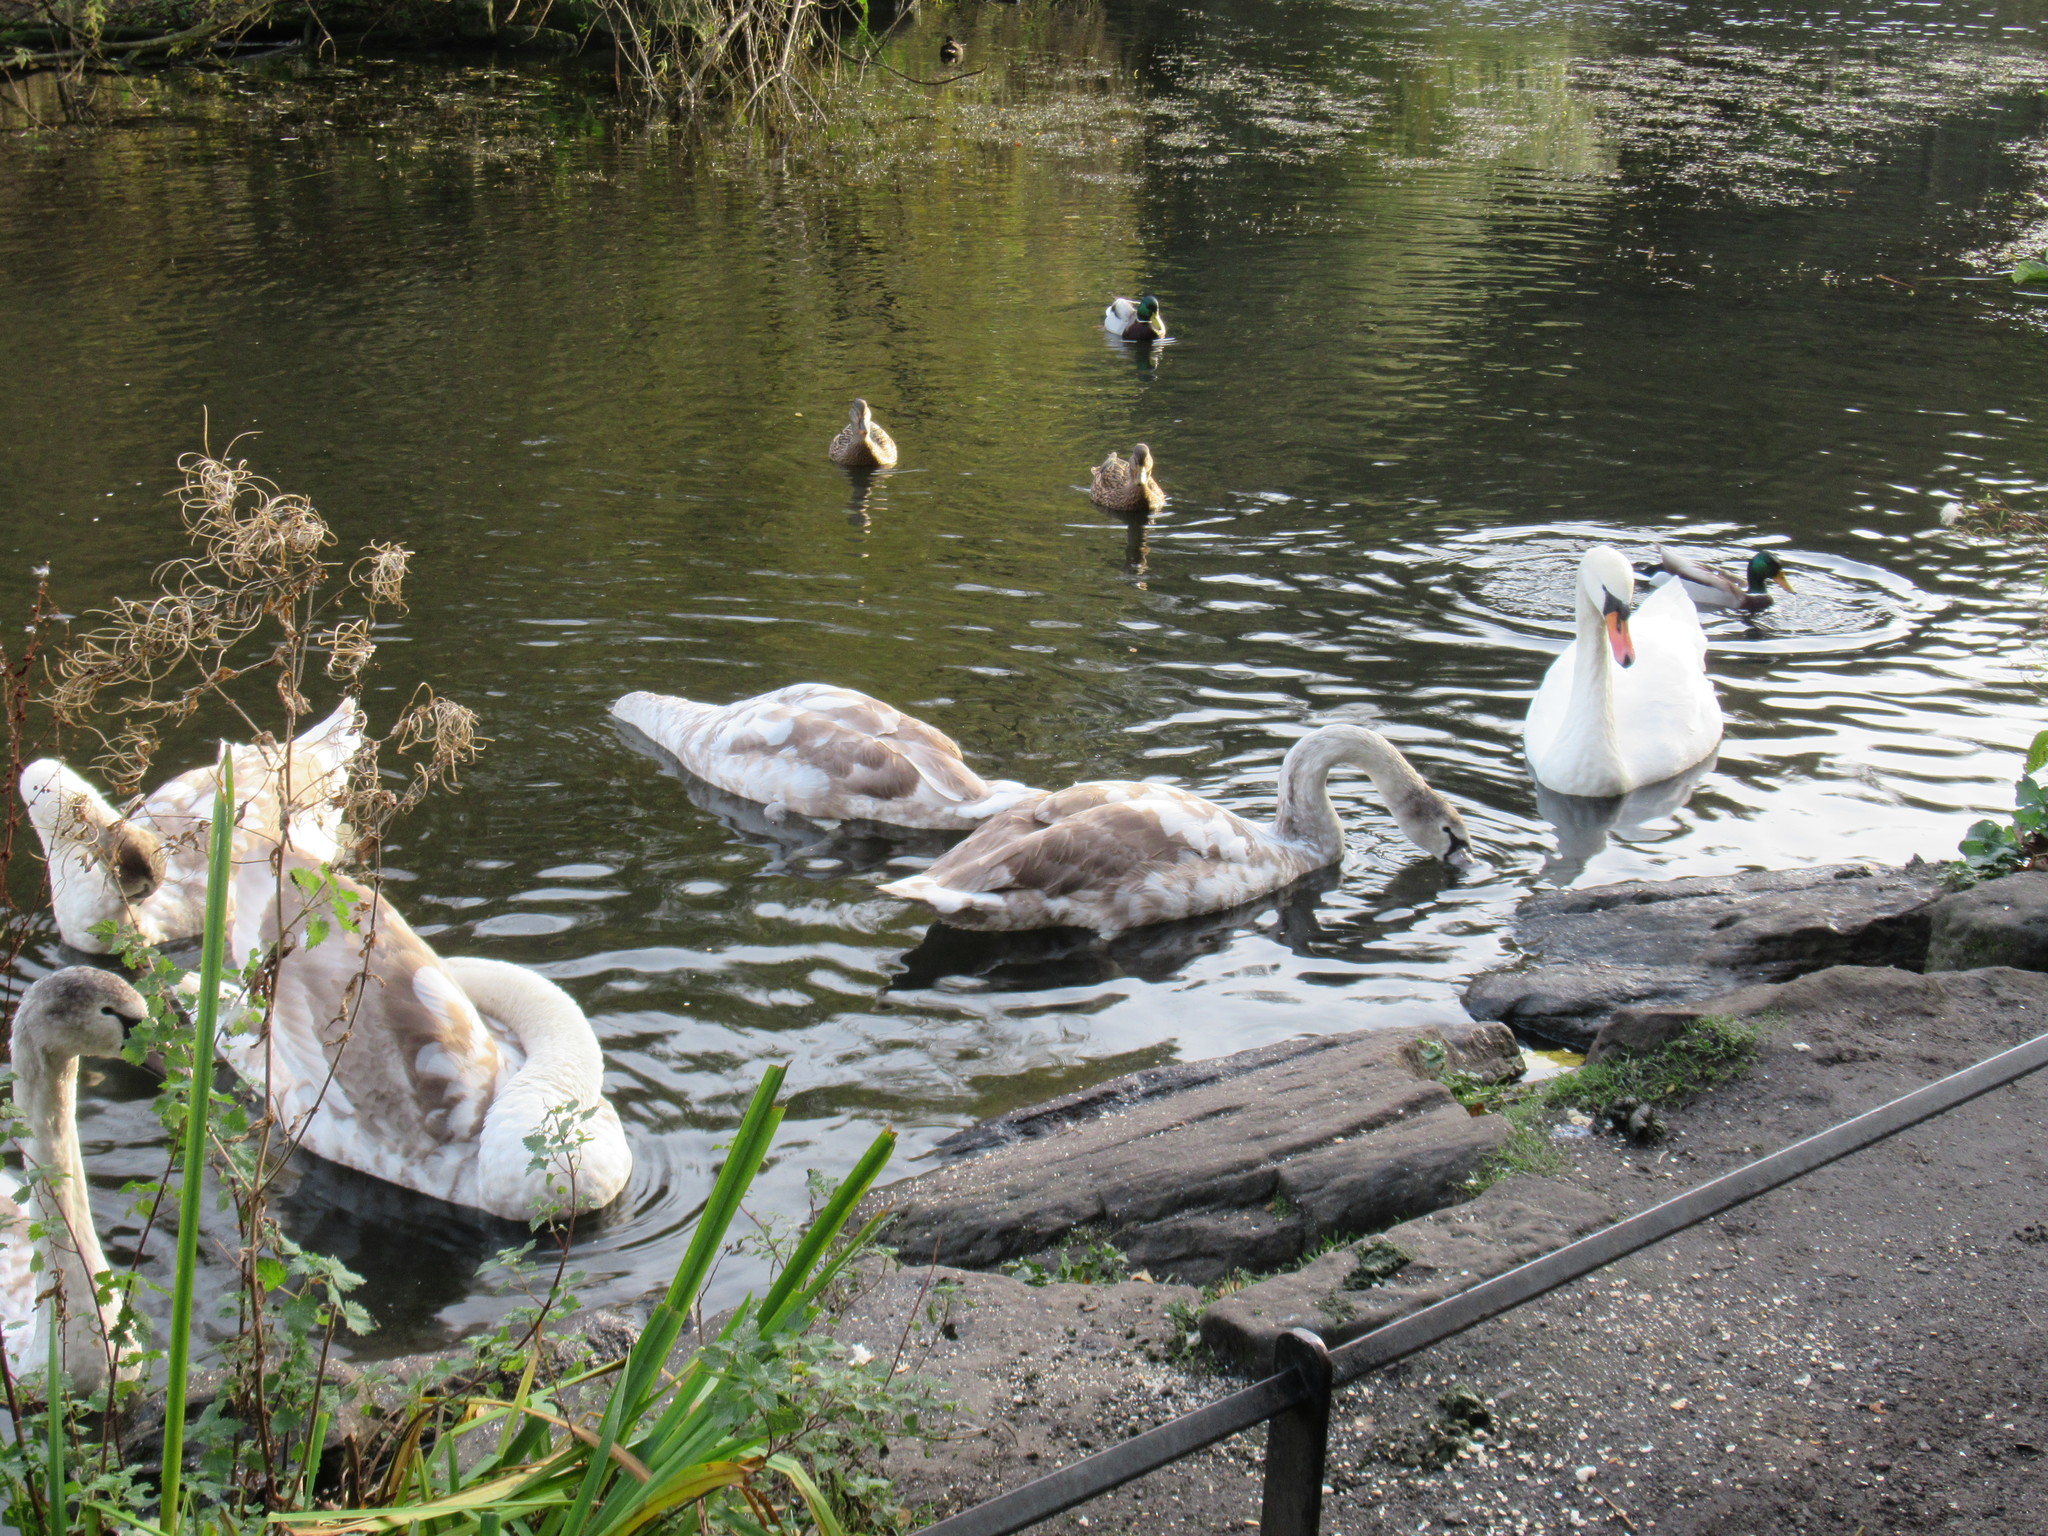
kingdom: Animalia
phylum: Chordata
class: Aves
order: Anseriformes
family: Anatidae
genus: Cygnus
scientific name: Cygnus olor
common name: Mute swan
